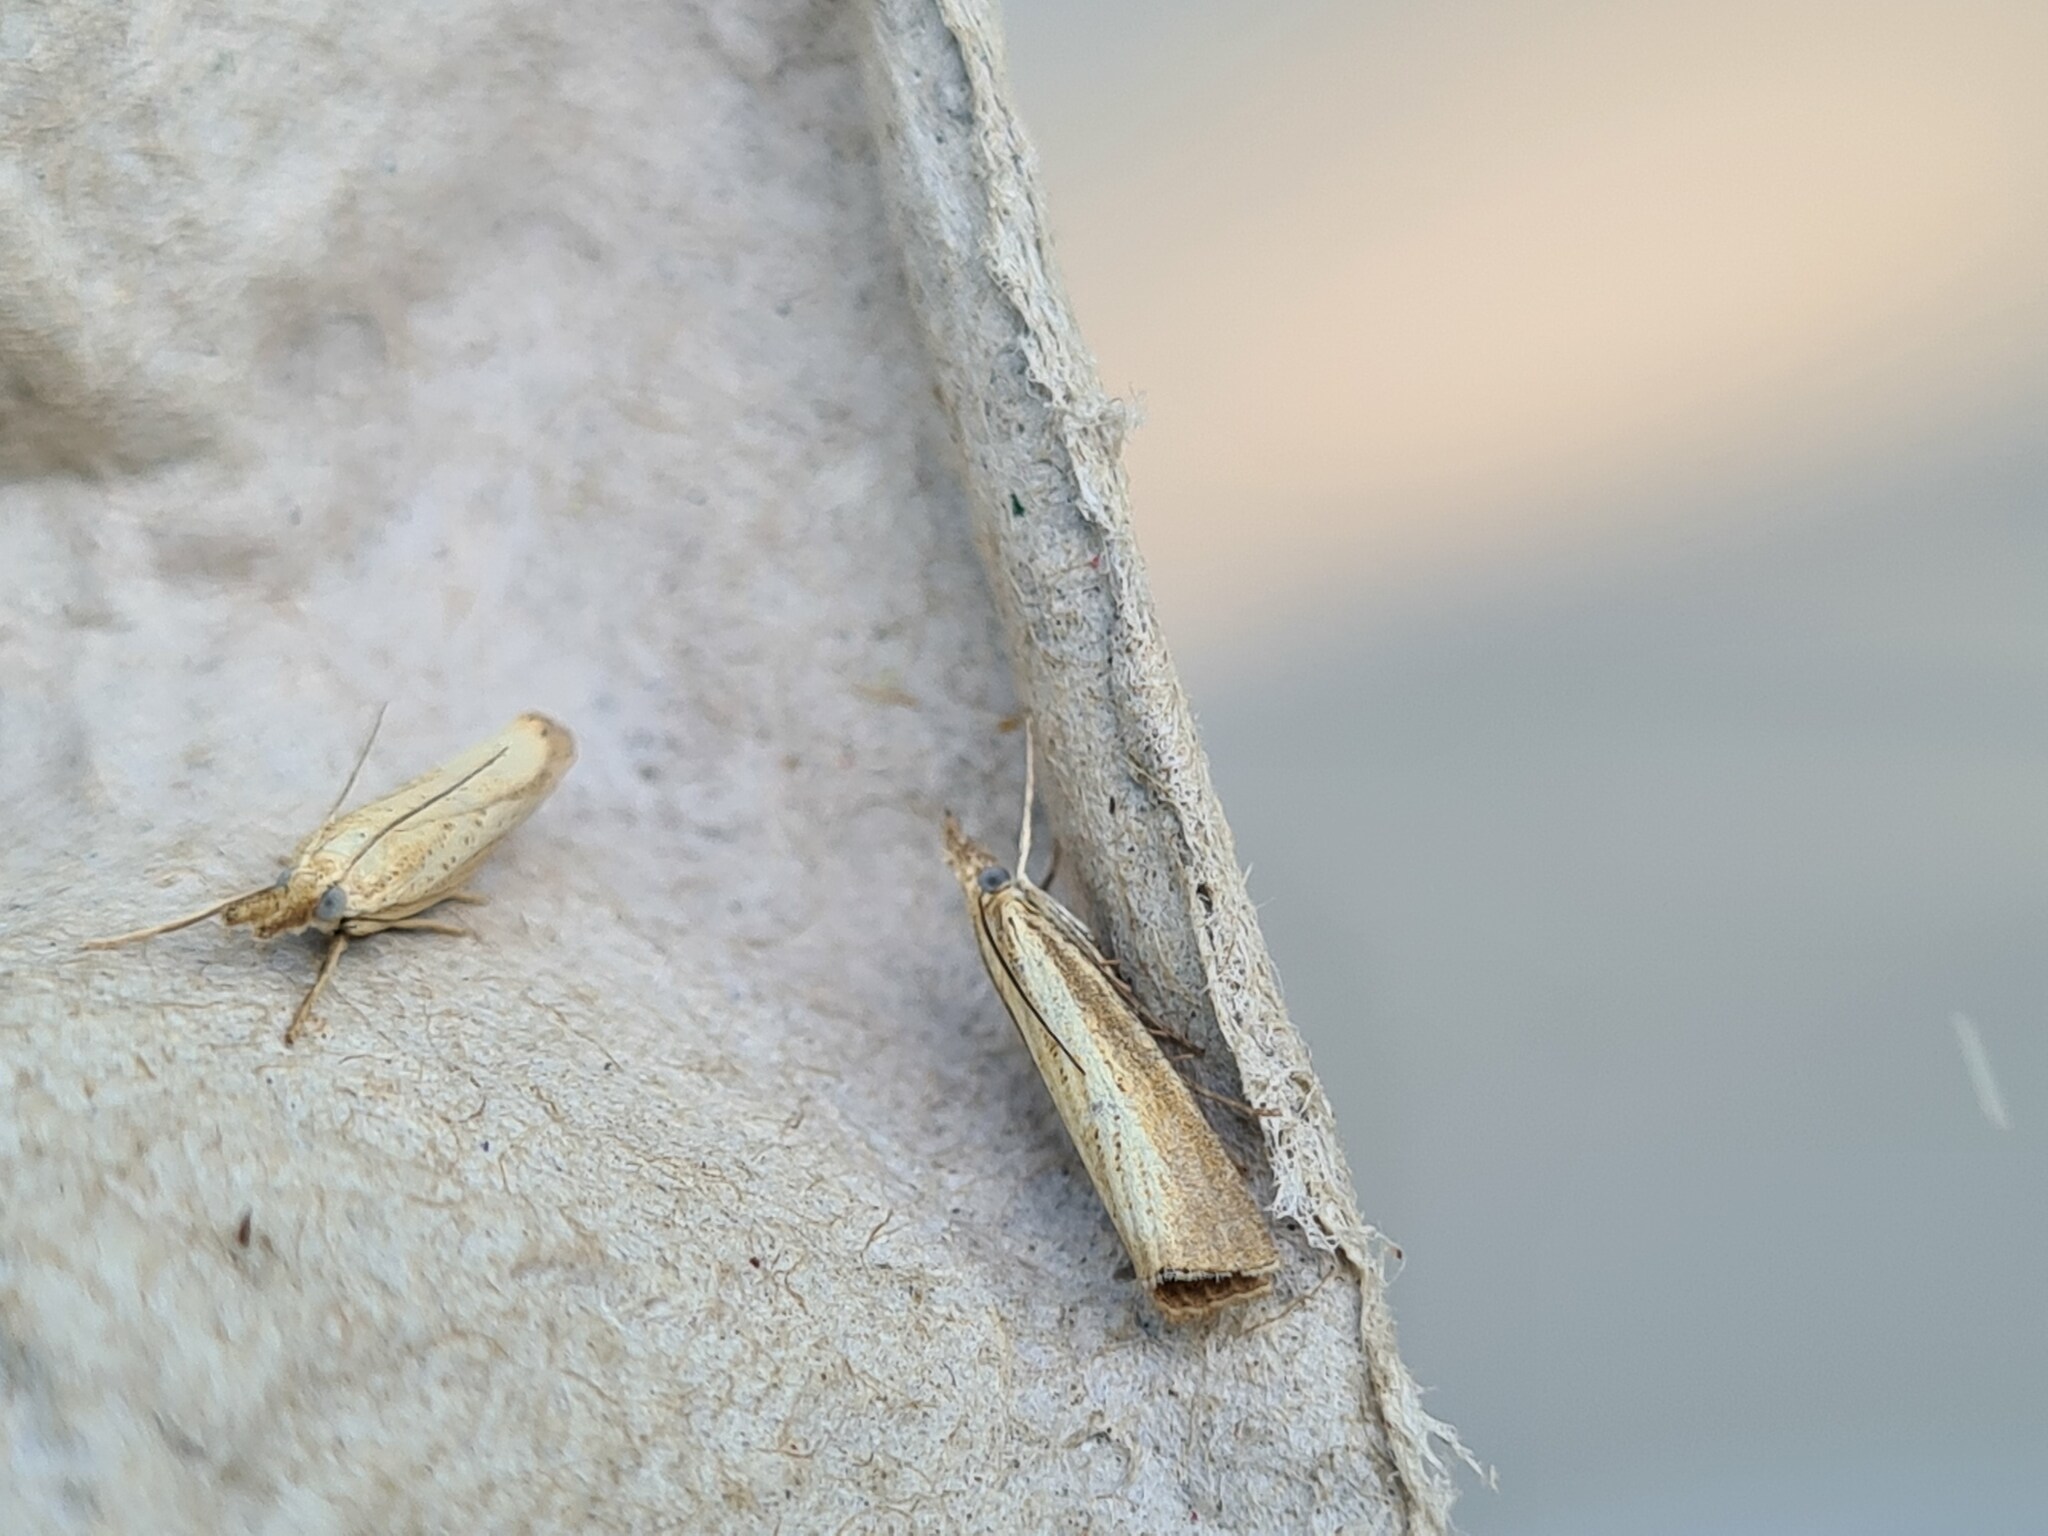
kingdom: Animalia
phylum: Arthropoda
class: Insecta
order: Lepidoptera
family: Crambidae
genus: Agriphila
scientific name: Agriphila straminella
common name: Straw grass-veneer
